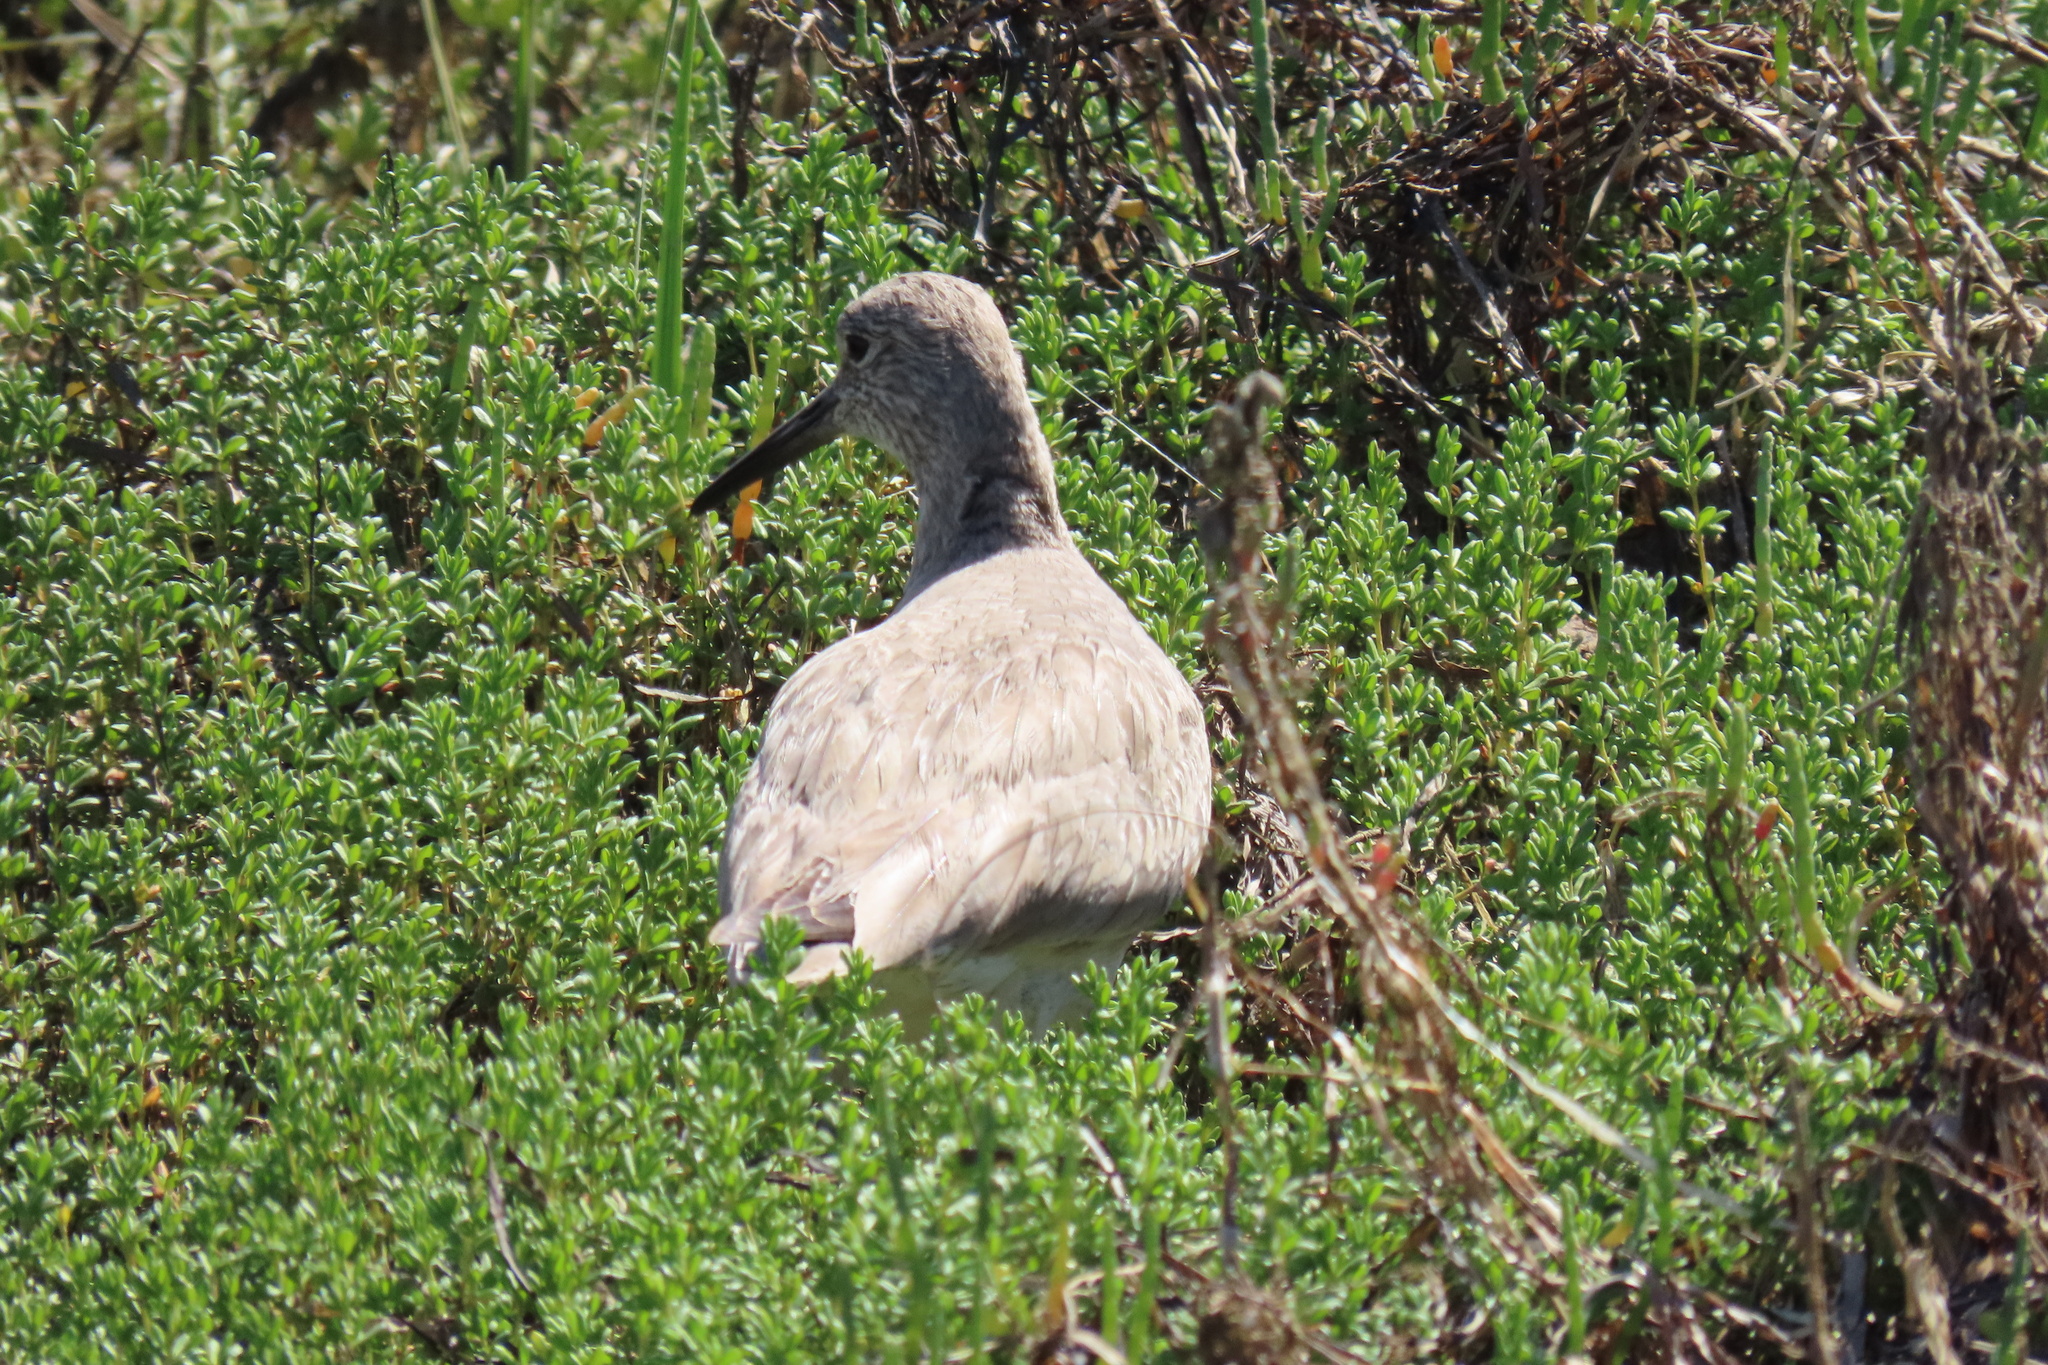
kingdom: Animalia
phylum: Chordata
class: Aves
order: Charadriiformes
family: Scolopacidae
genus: Tringa
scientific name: Tringa semipalmata
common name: Willet
